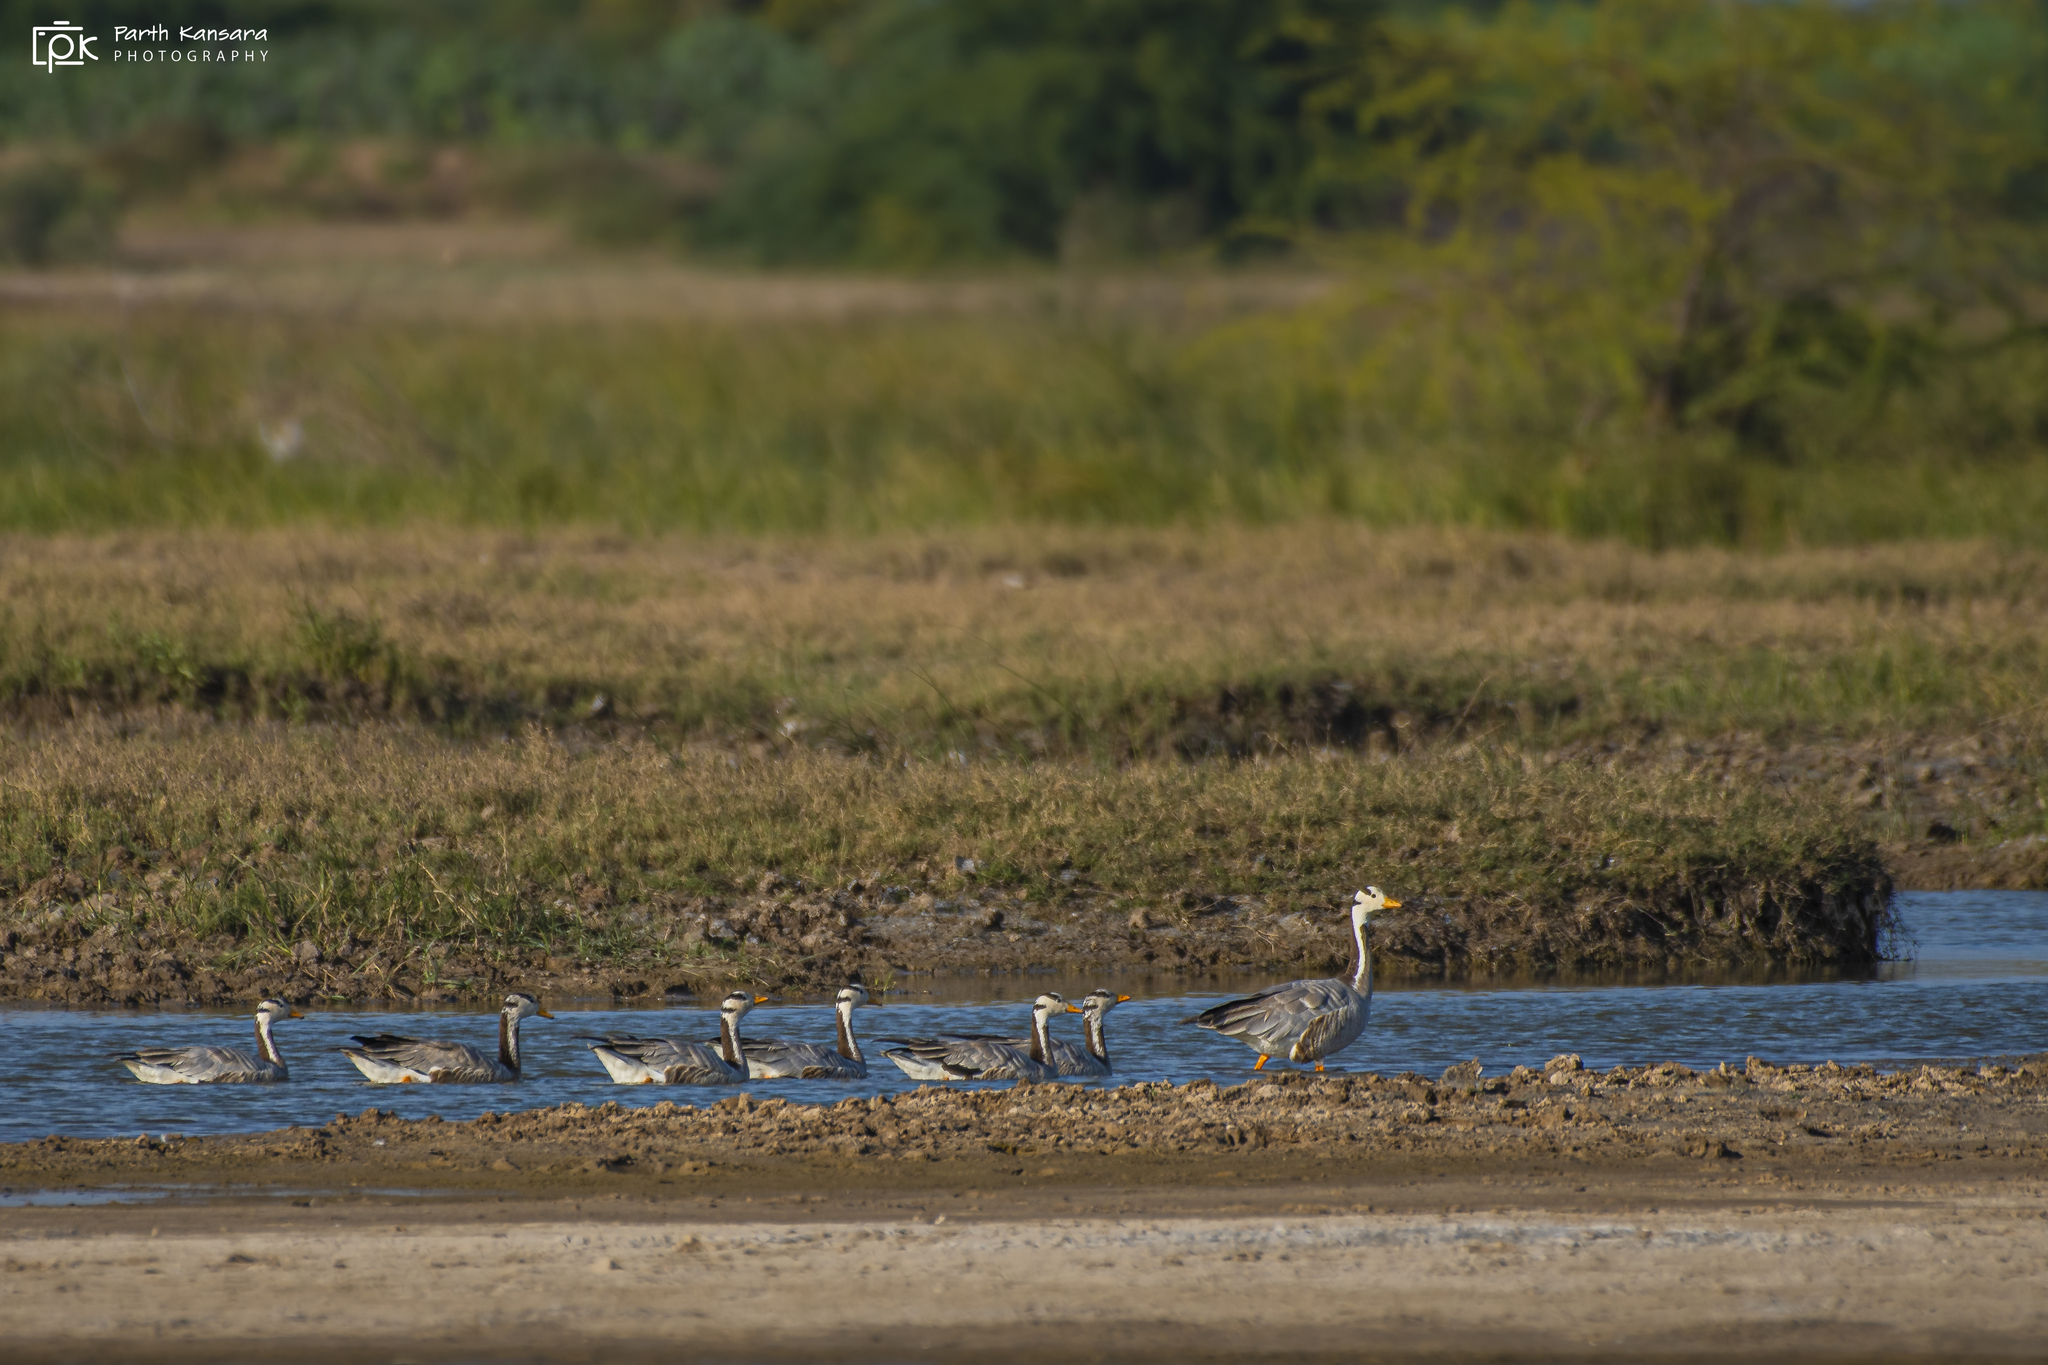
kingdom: Animalia
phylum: Chordata
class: Aves
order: Anseriformes
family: Anatidae
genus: Anser
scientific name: Anser indicus
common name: Bar-headed goose
